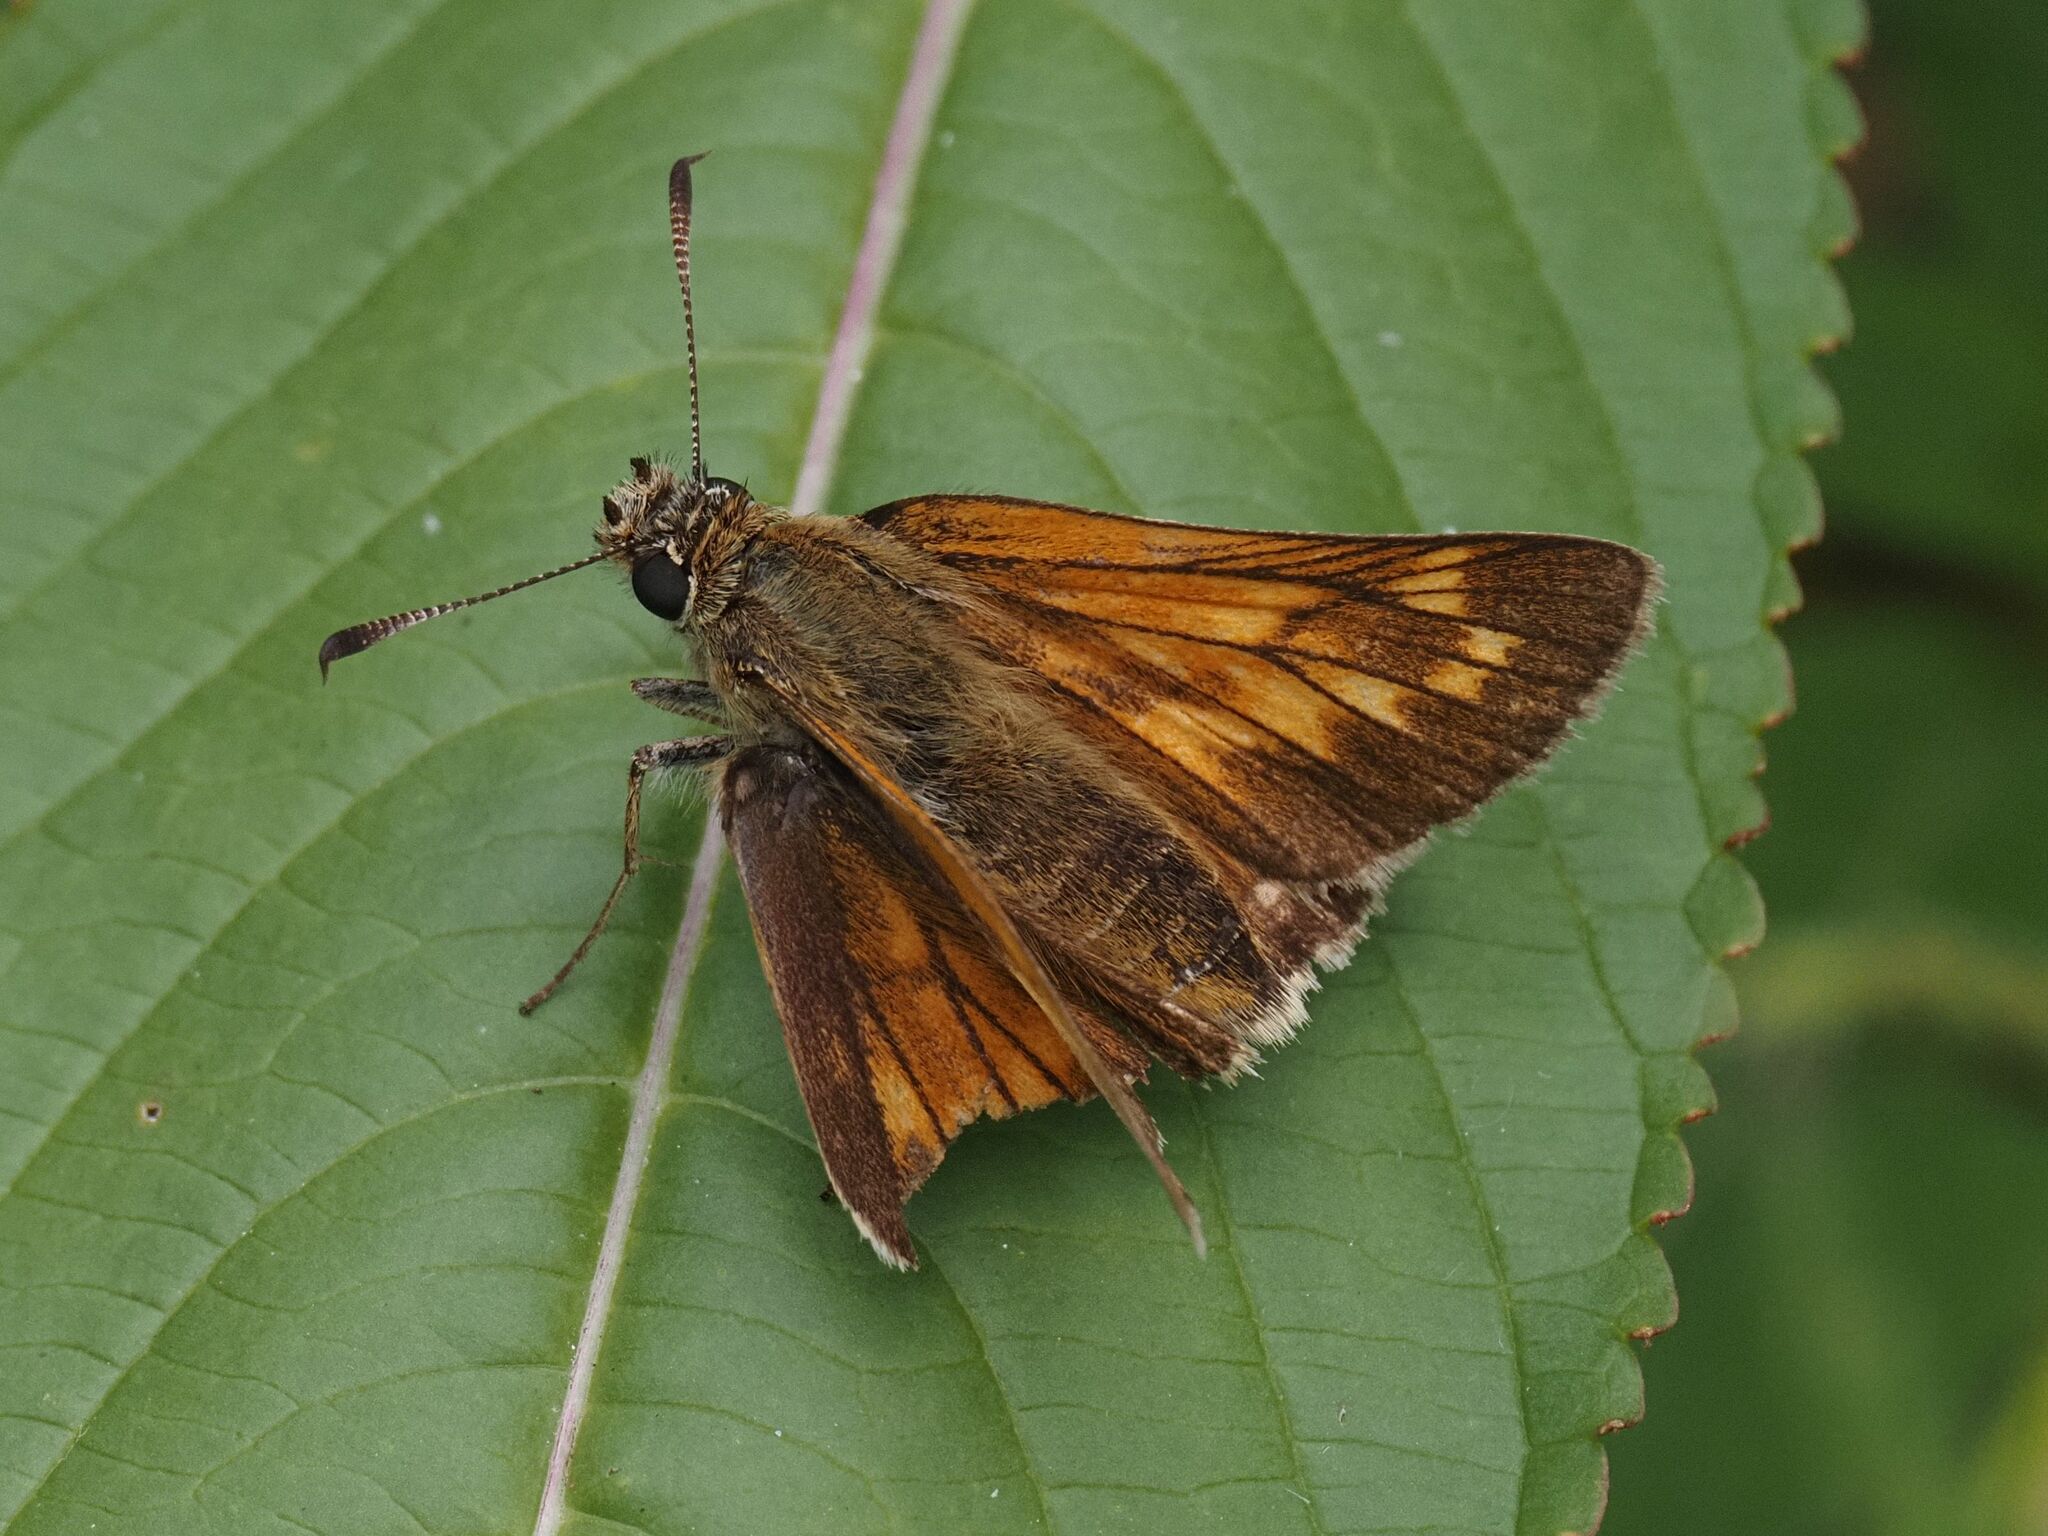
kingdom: Animalia
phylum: Arthropoda
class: Insecta
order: Lepidoptera
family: Hesperiidae
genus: Ochlodes
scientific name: Ochlodes venata
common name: Large skipper
